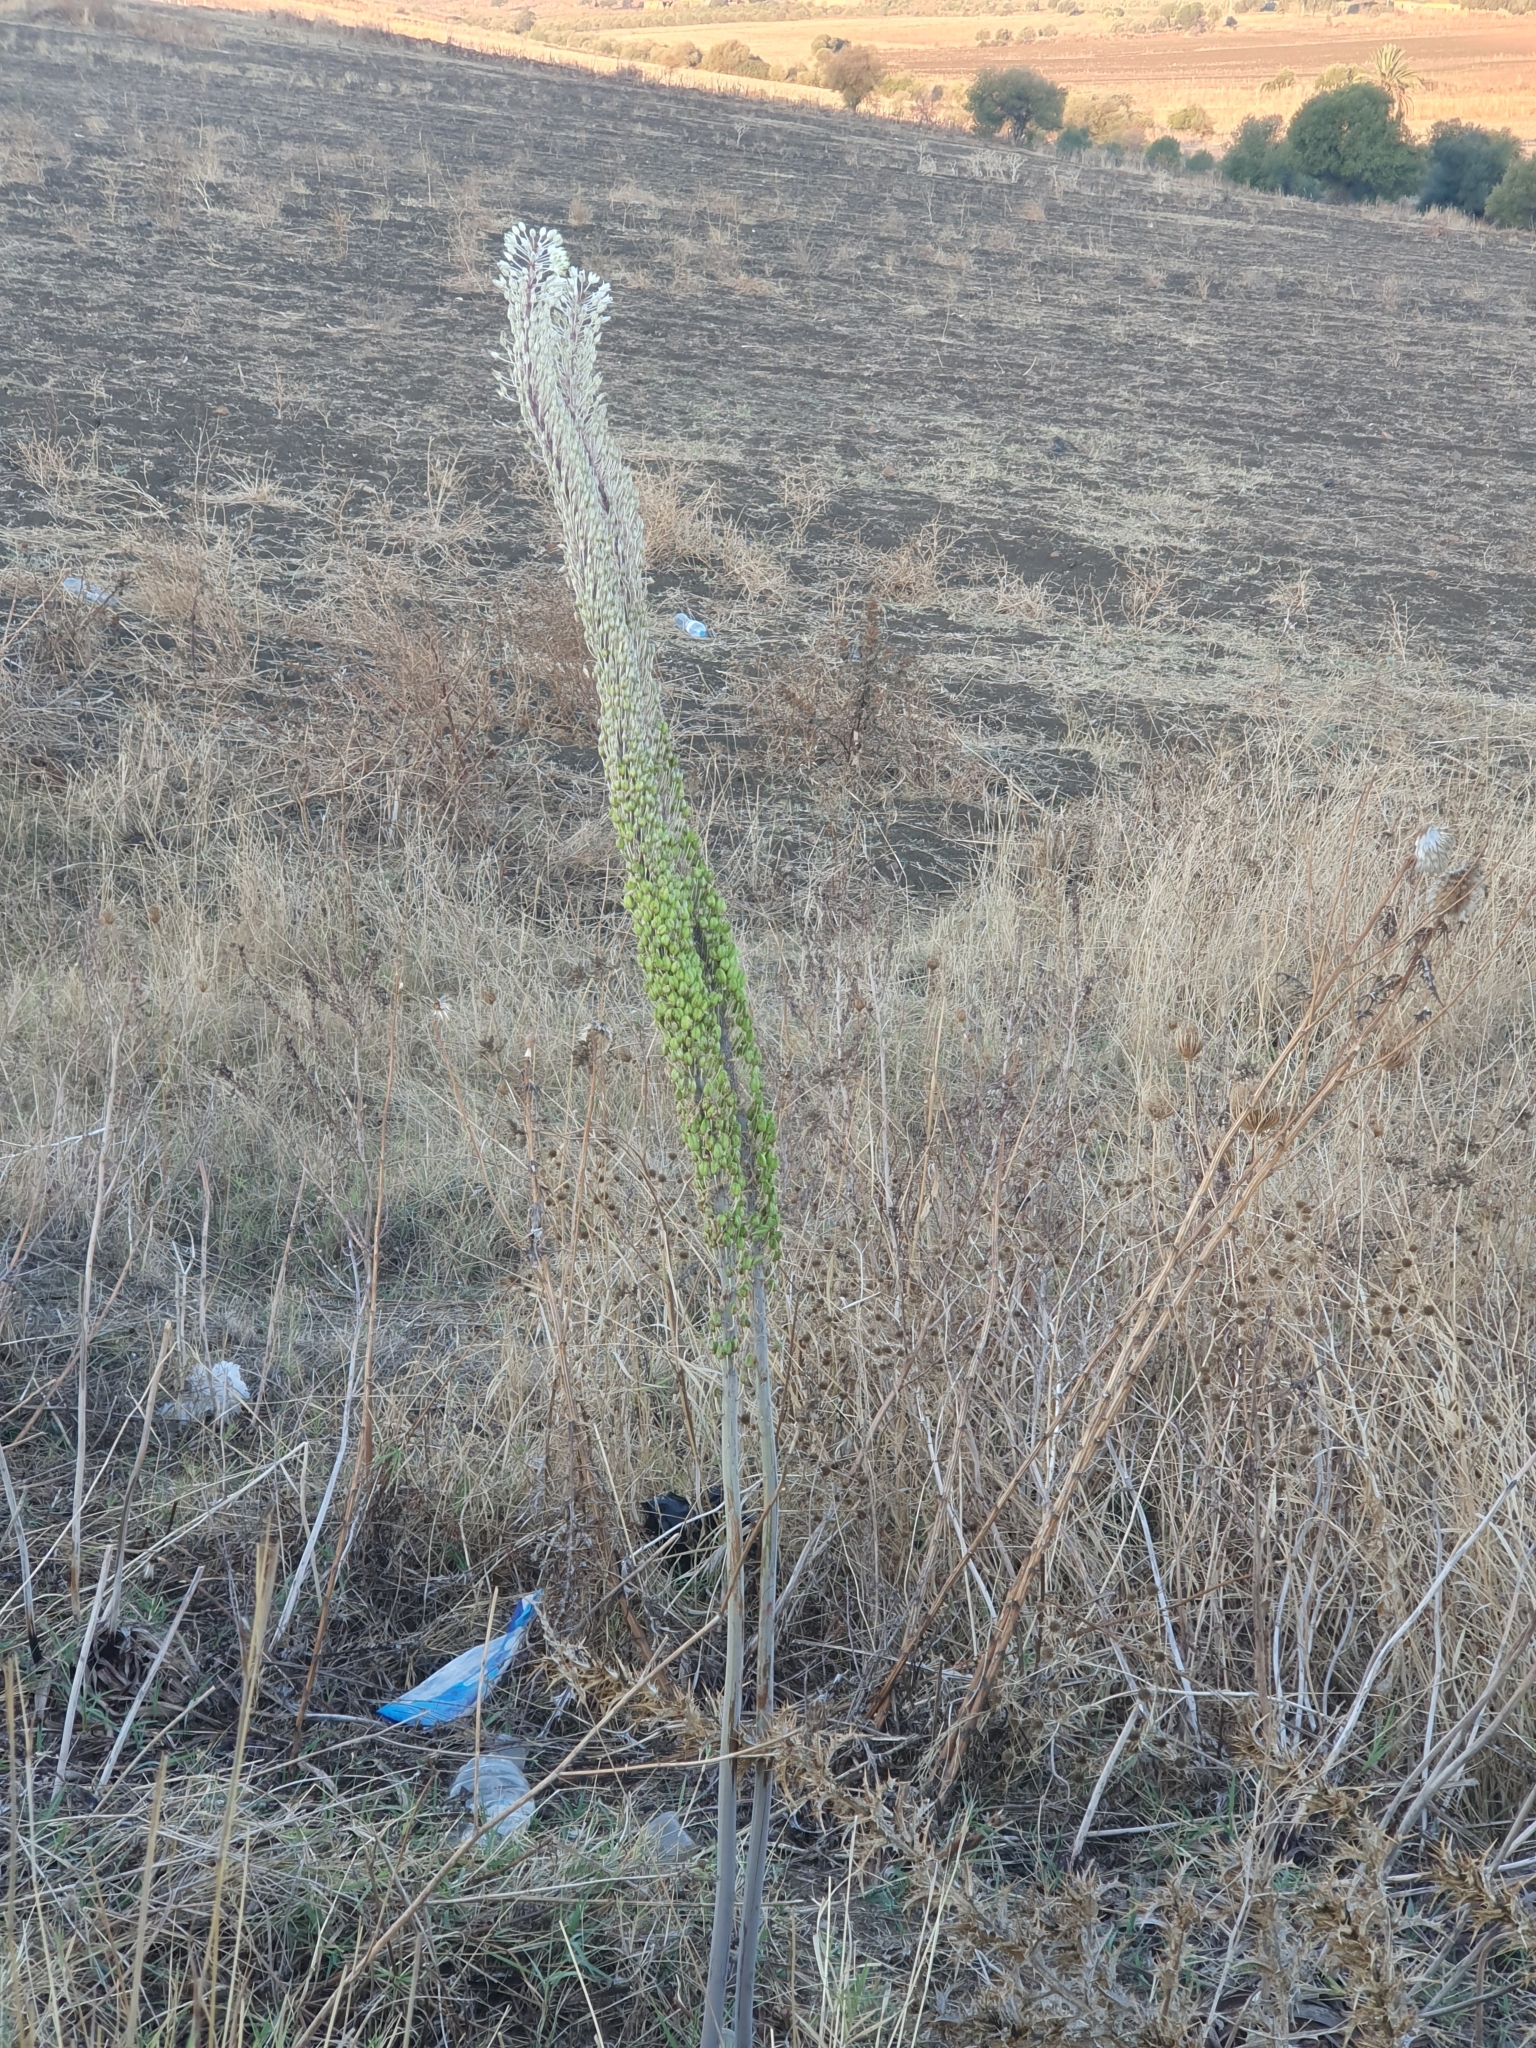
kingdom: Plantae
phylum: Tracheophyta
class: Liliopsida
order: Asparagales
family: Asparagaceae
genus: Drimia
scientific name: Drimia numidica
